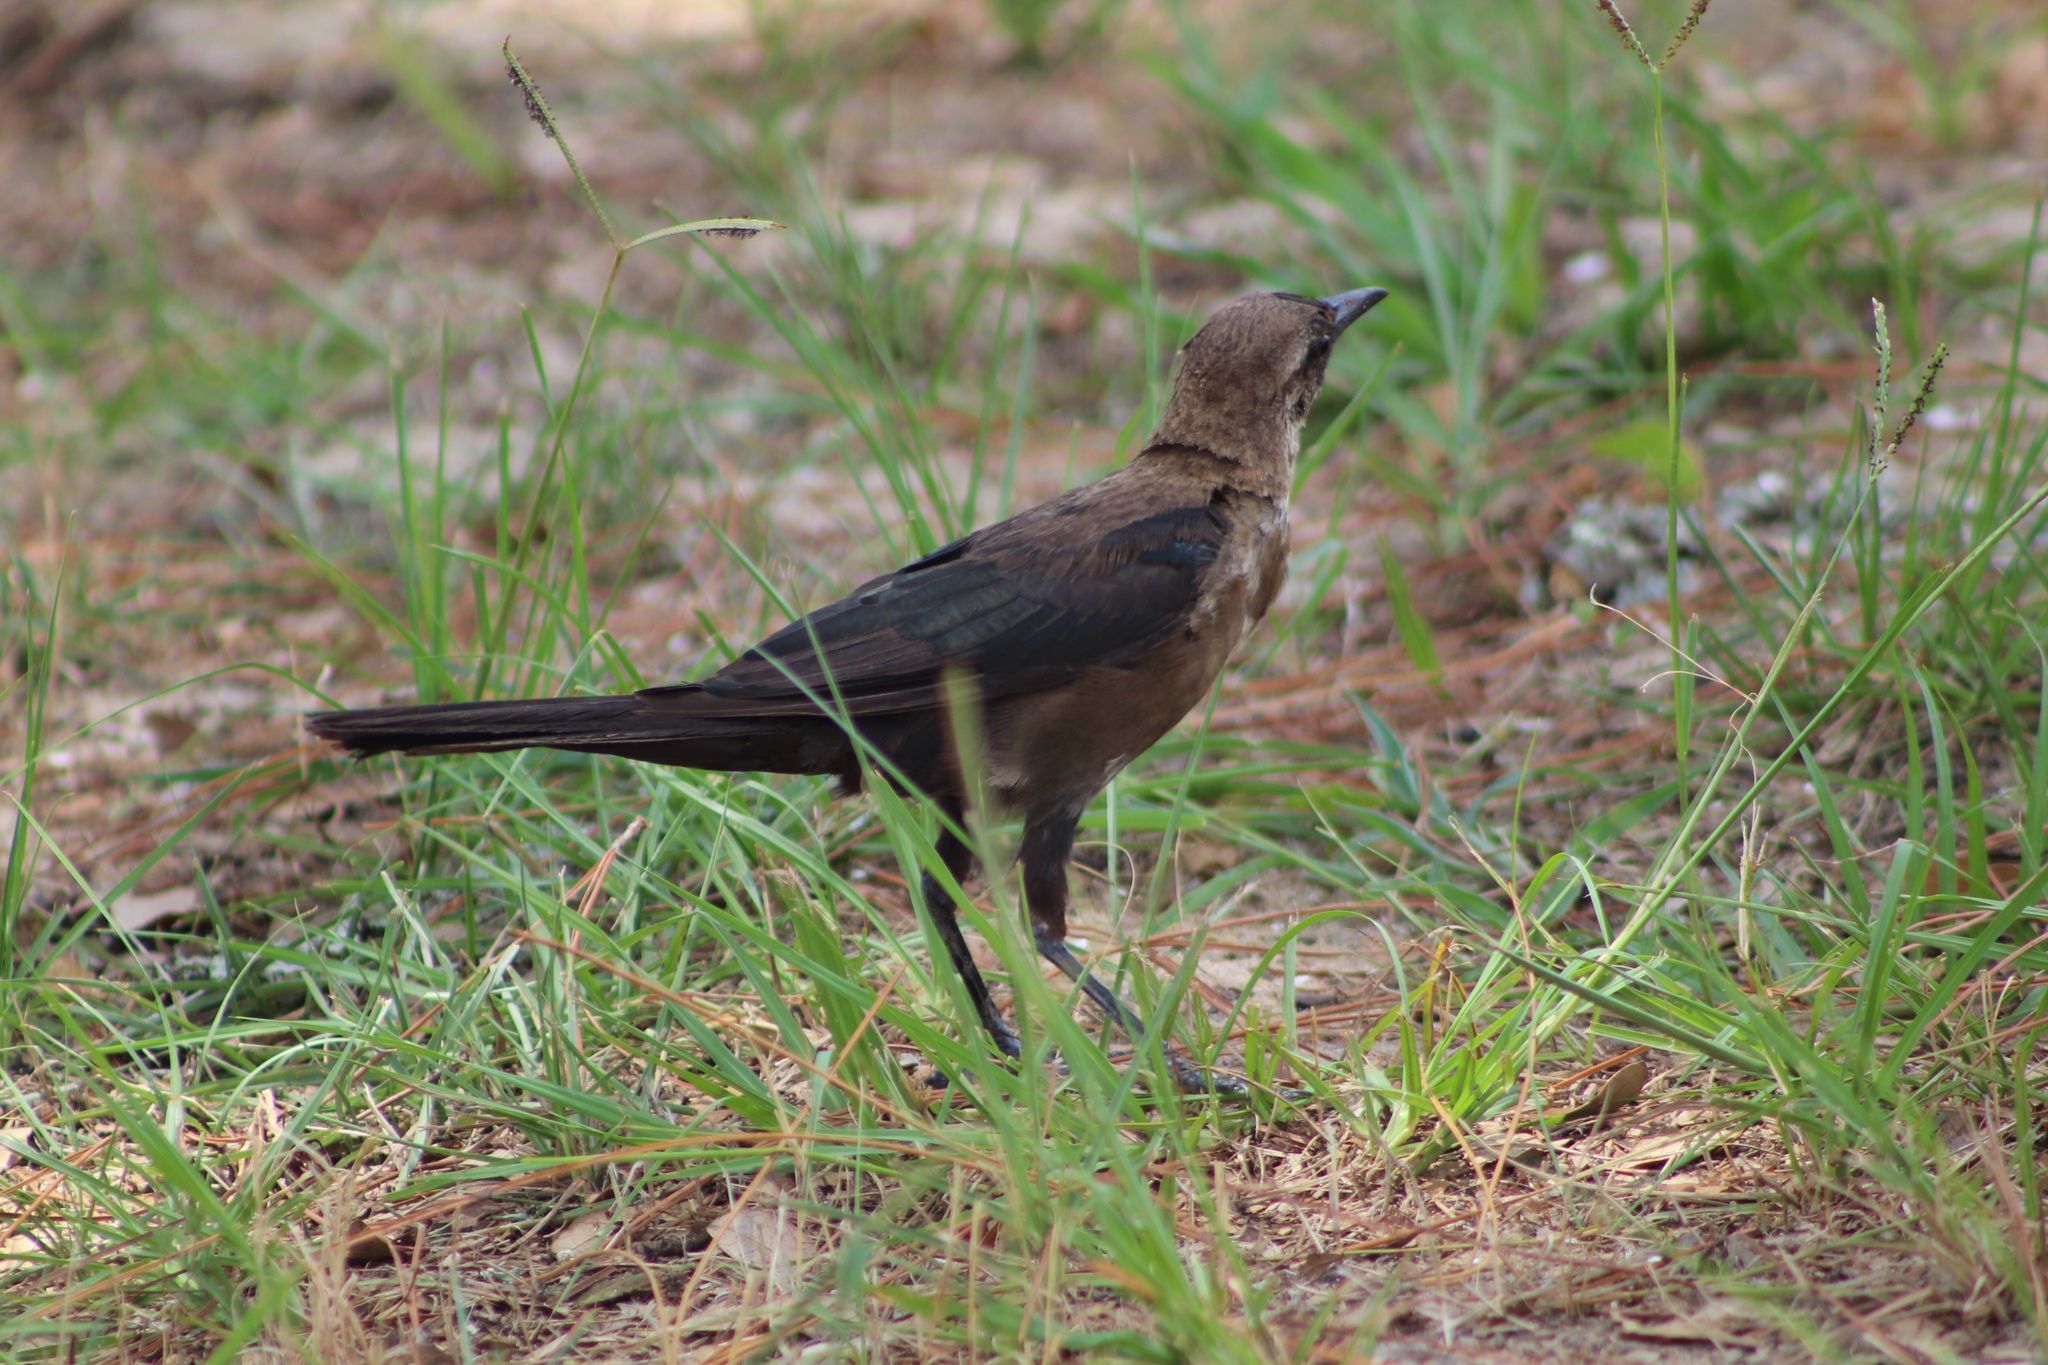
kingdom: Animalia
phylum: Chordata
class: Aves
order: Passeriformes
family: Icteridae
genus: Quiscalus
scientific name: Quiscalus major
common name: Boat-tailed grackle
